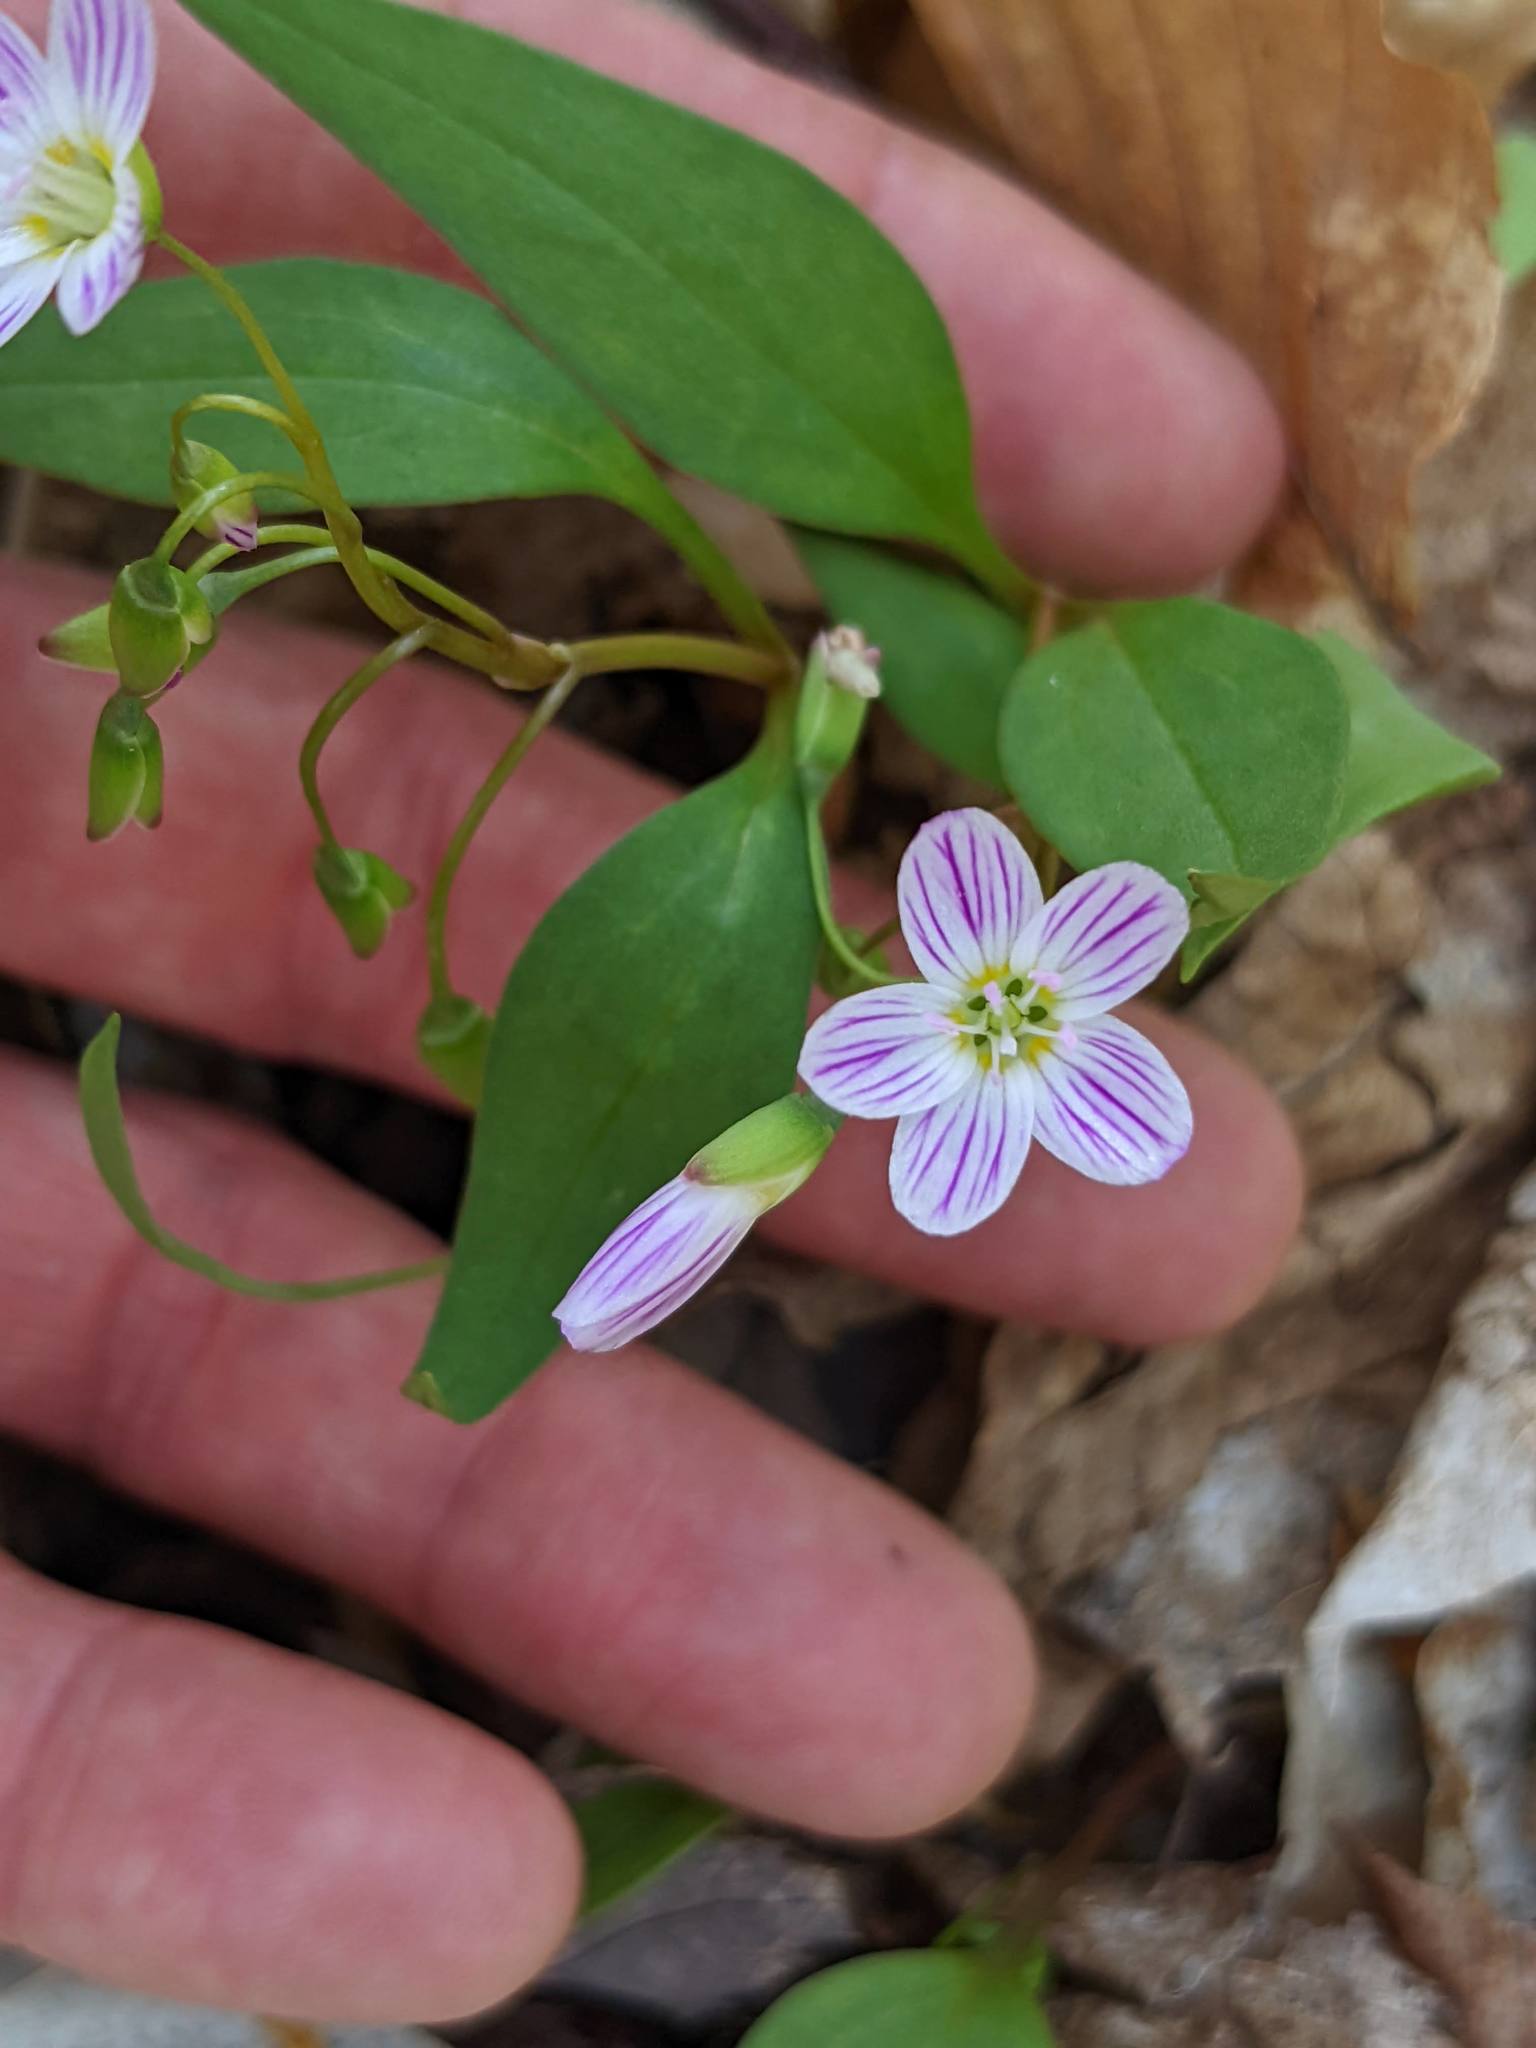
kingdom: Plantae
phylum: Tracheophyta
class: Magnoliopsida
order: Caryophyllales
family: Montiaceae
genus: Claytonia
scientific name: Claytonia caroliniana
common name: Carolina spring beauty
